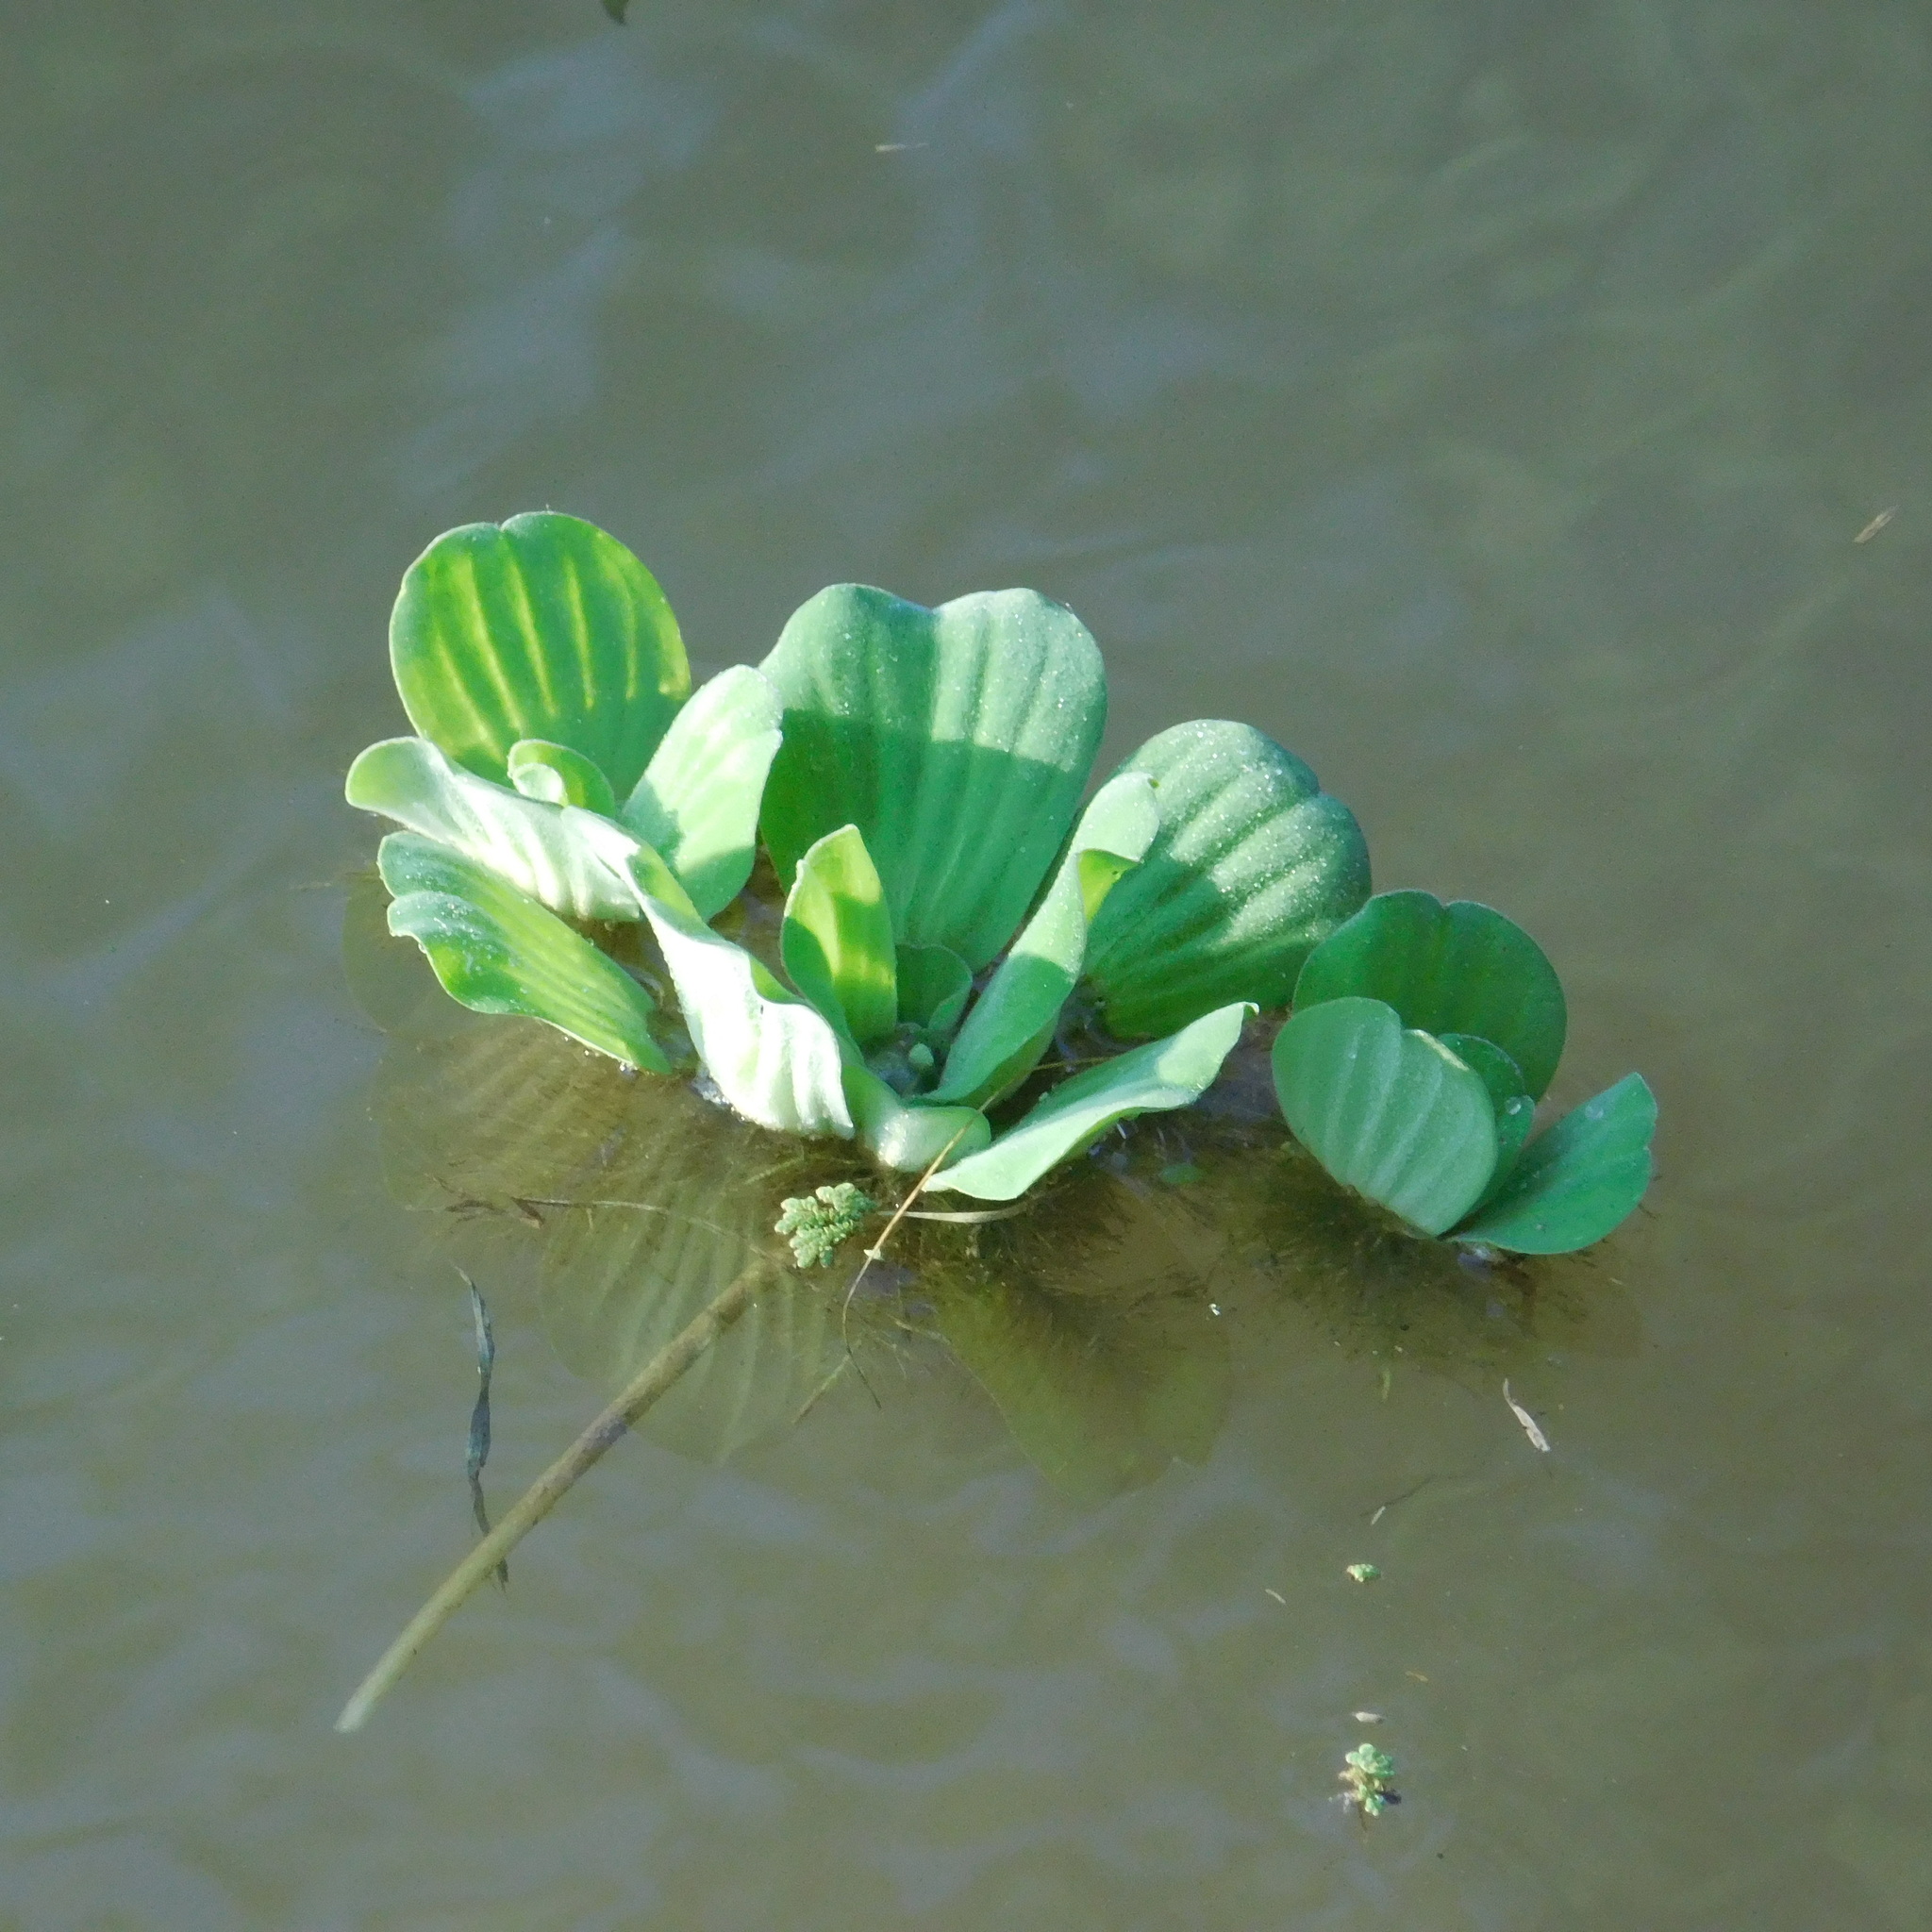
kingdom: Plantae
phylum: Tracheophyta
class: Liliopsida
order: Alismatales
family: Araceae
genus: Pistia
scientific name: Pistia stratiotes
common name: Water lettuce
